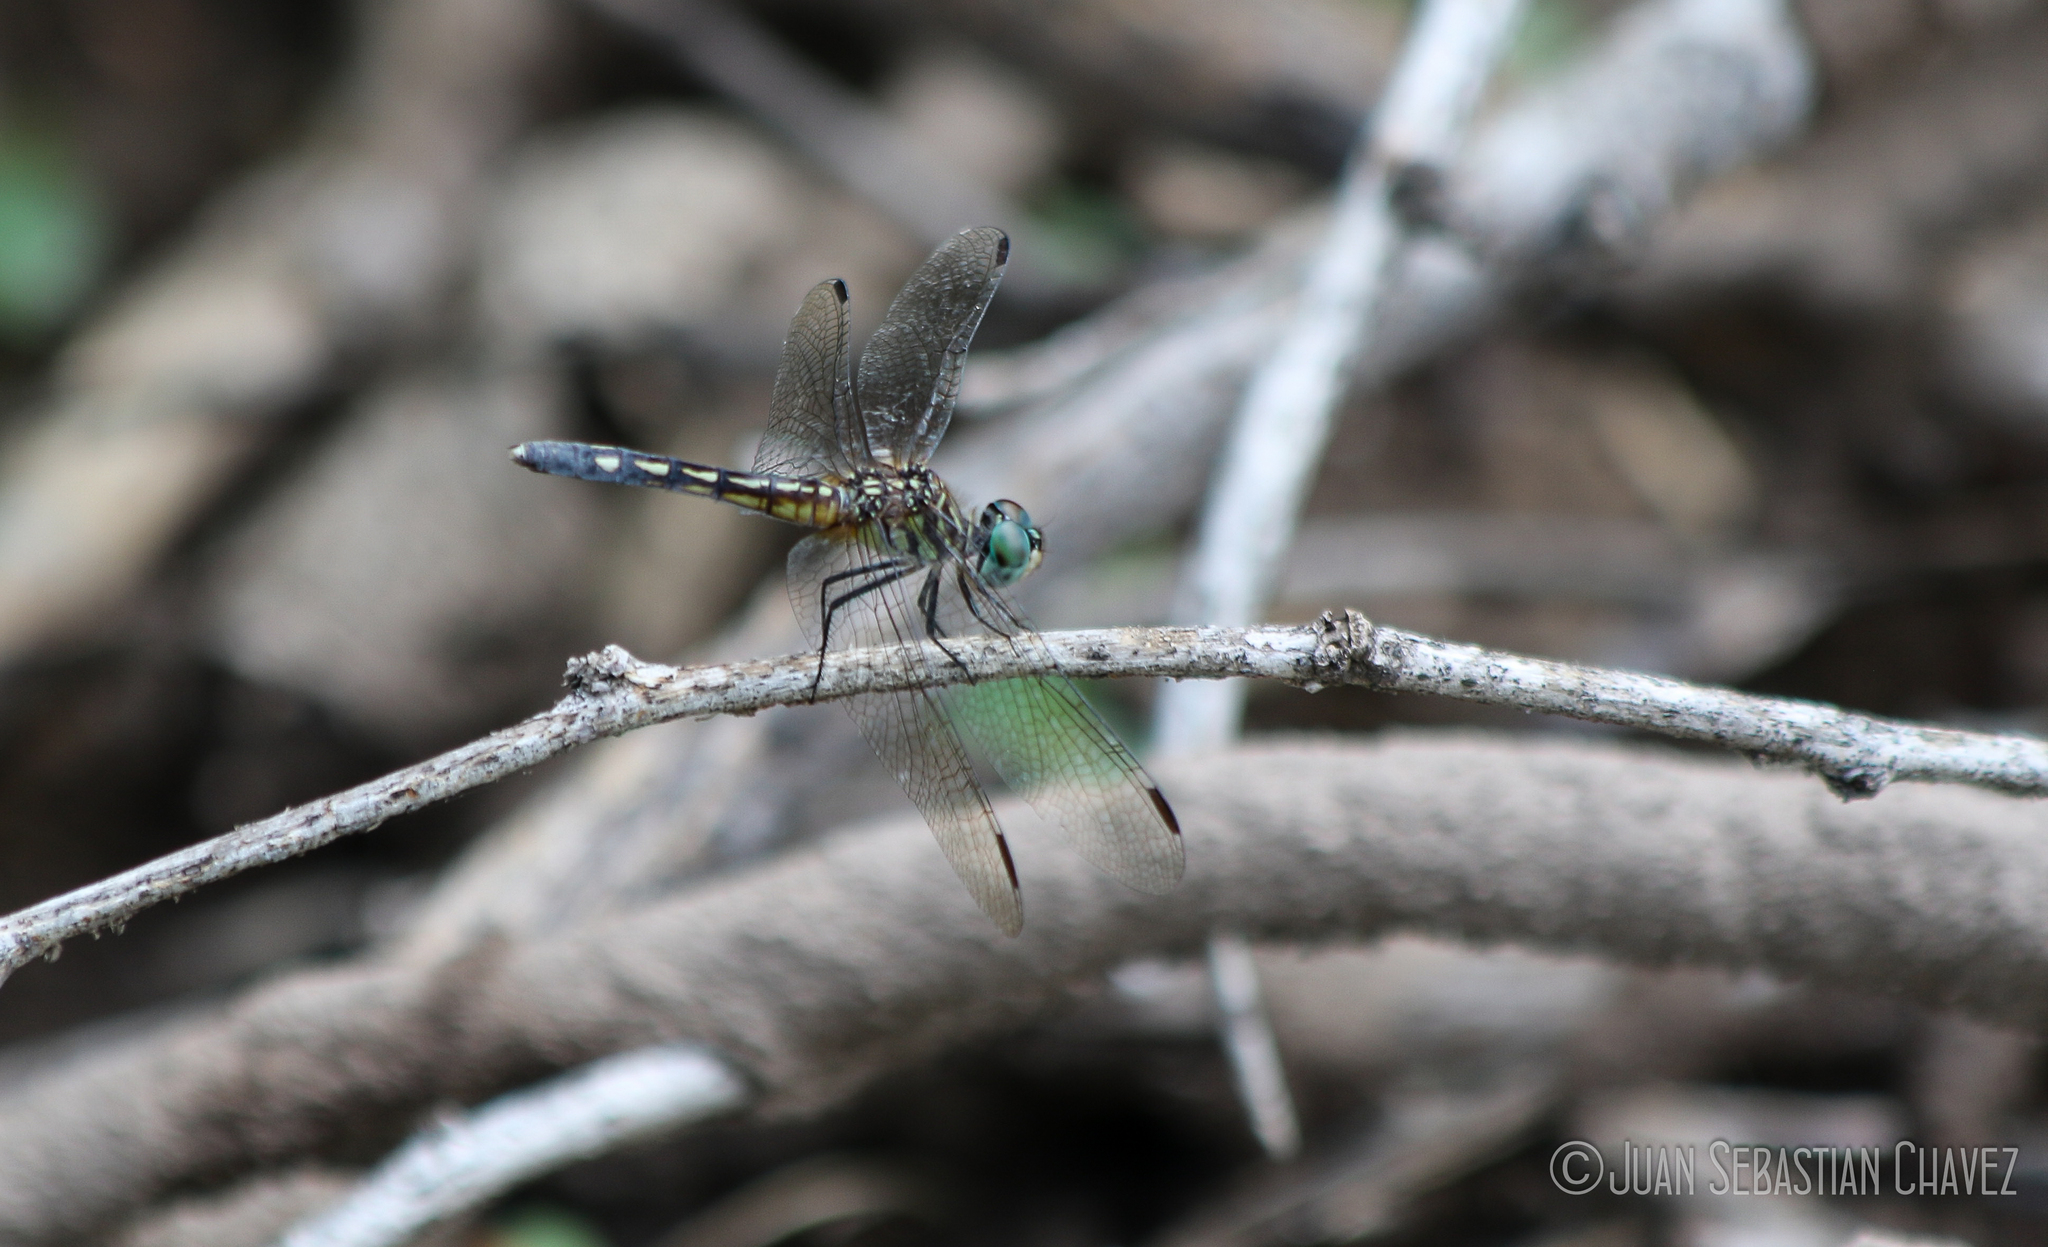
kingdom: Animalia
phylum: Arthropoda
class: Insecta
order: Odonata
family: Libellulidae
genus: Pachydiplax
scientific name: Pachydiplax longipennis
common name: Blue dasher
